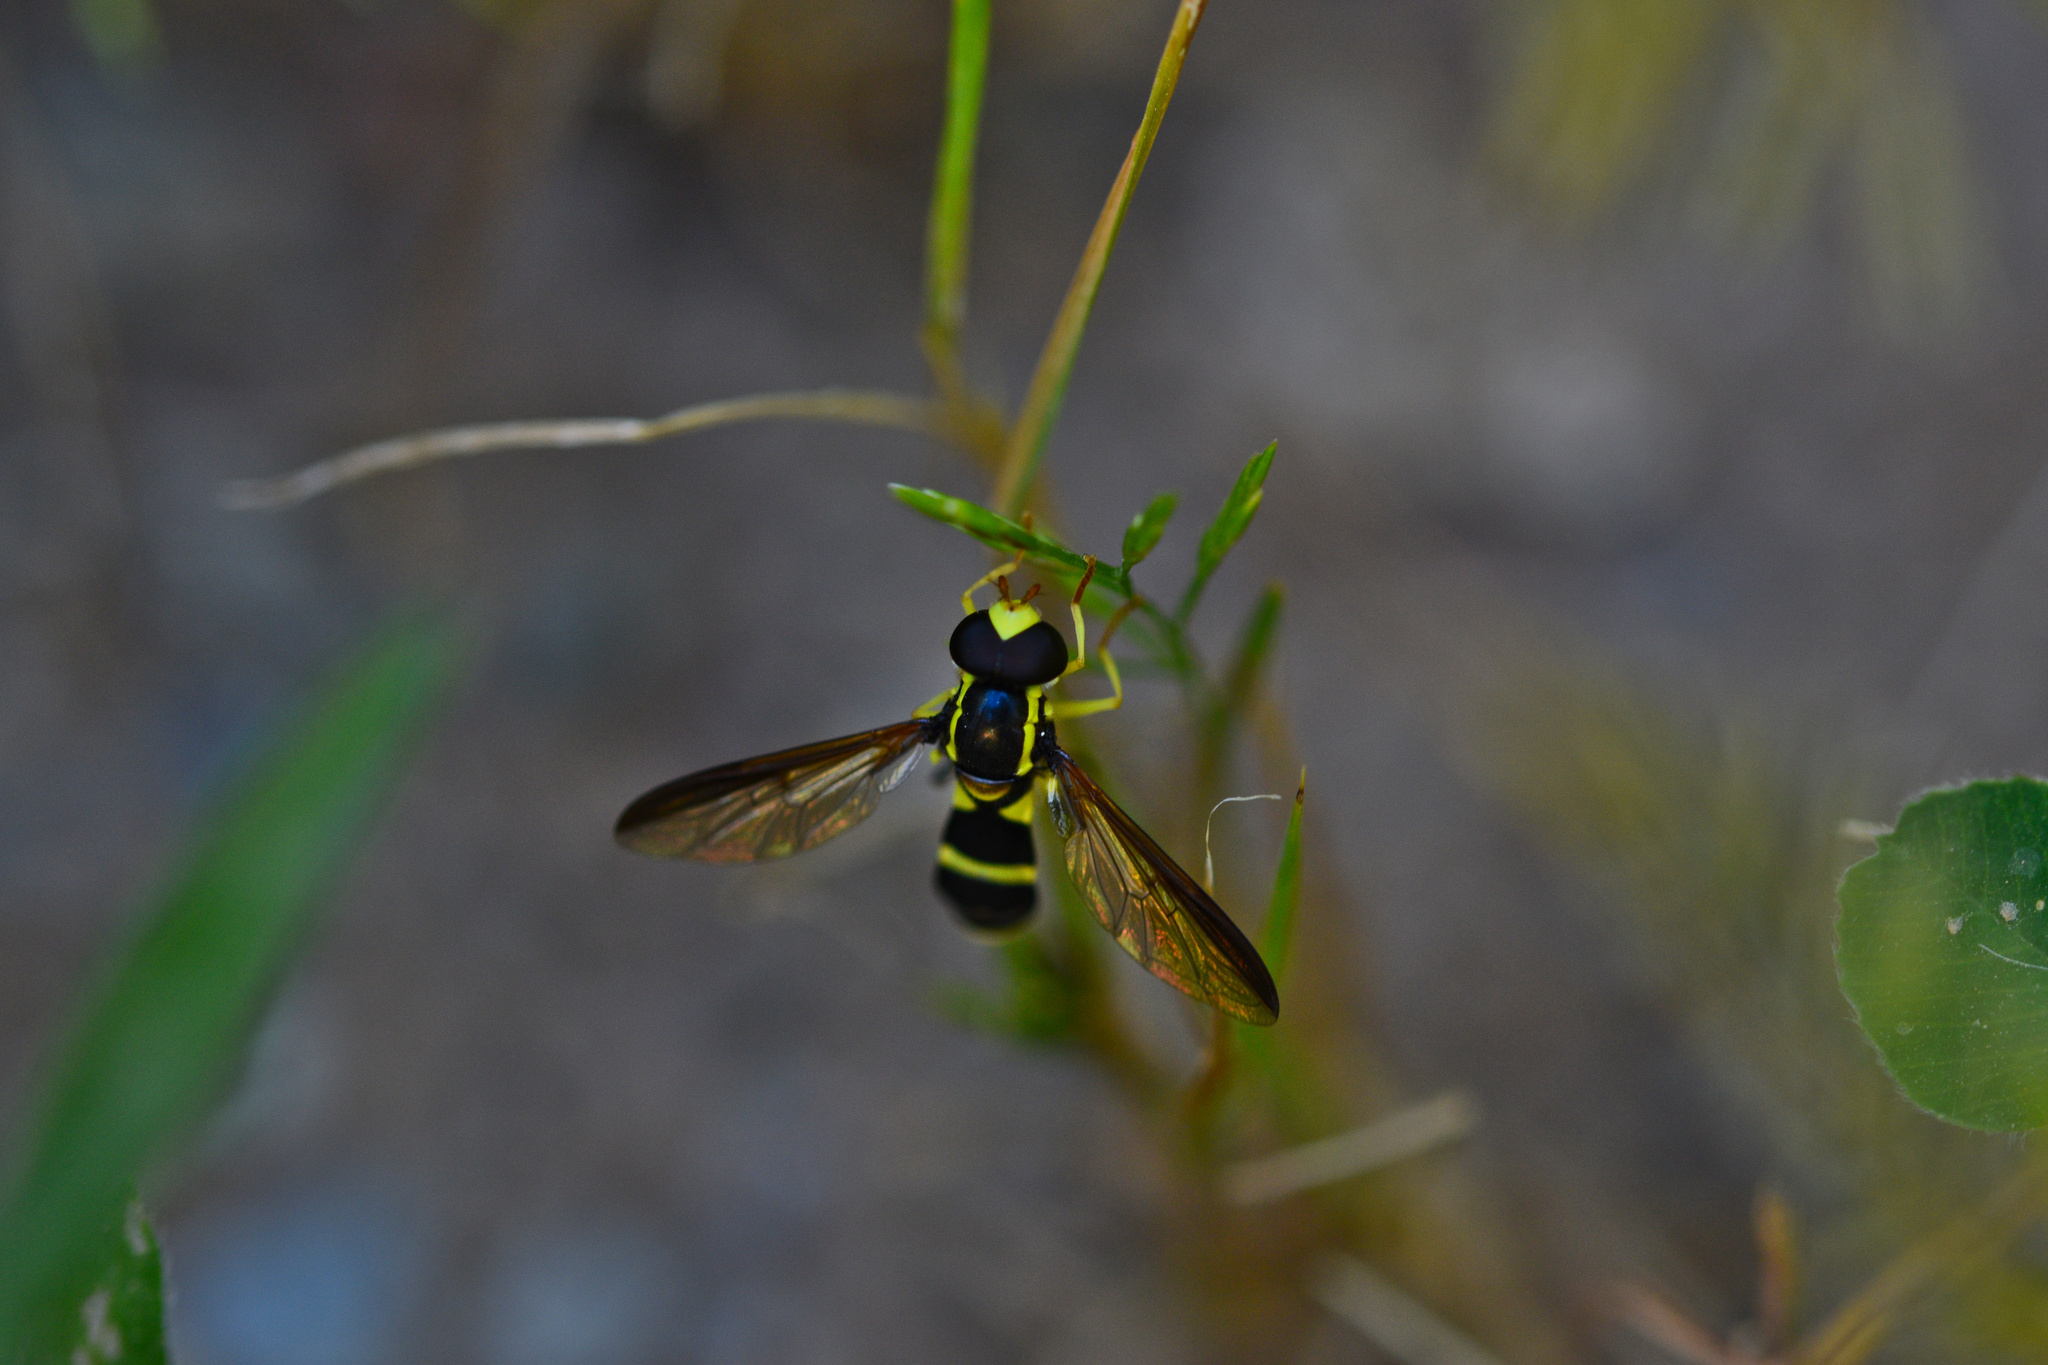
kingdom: Animalia
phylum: Arthropoda
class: Insecta
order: Diptera
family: Syrphidae
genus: Philhelius
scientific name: Philhelius marginalis
